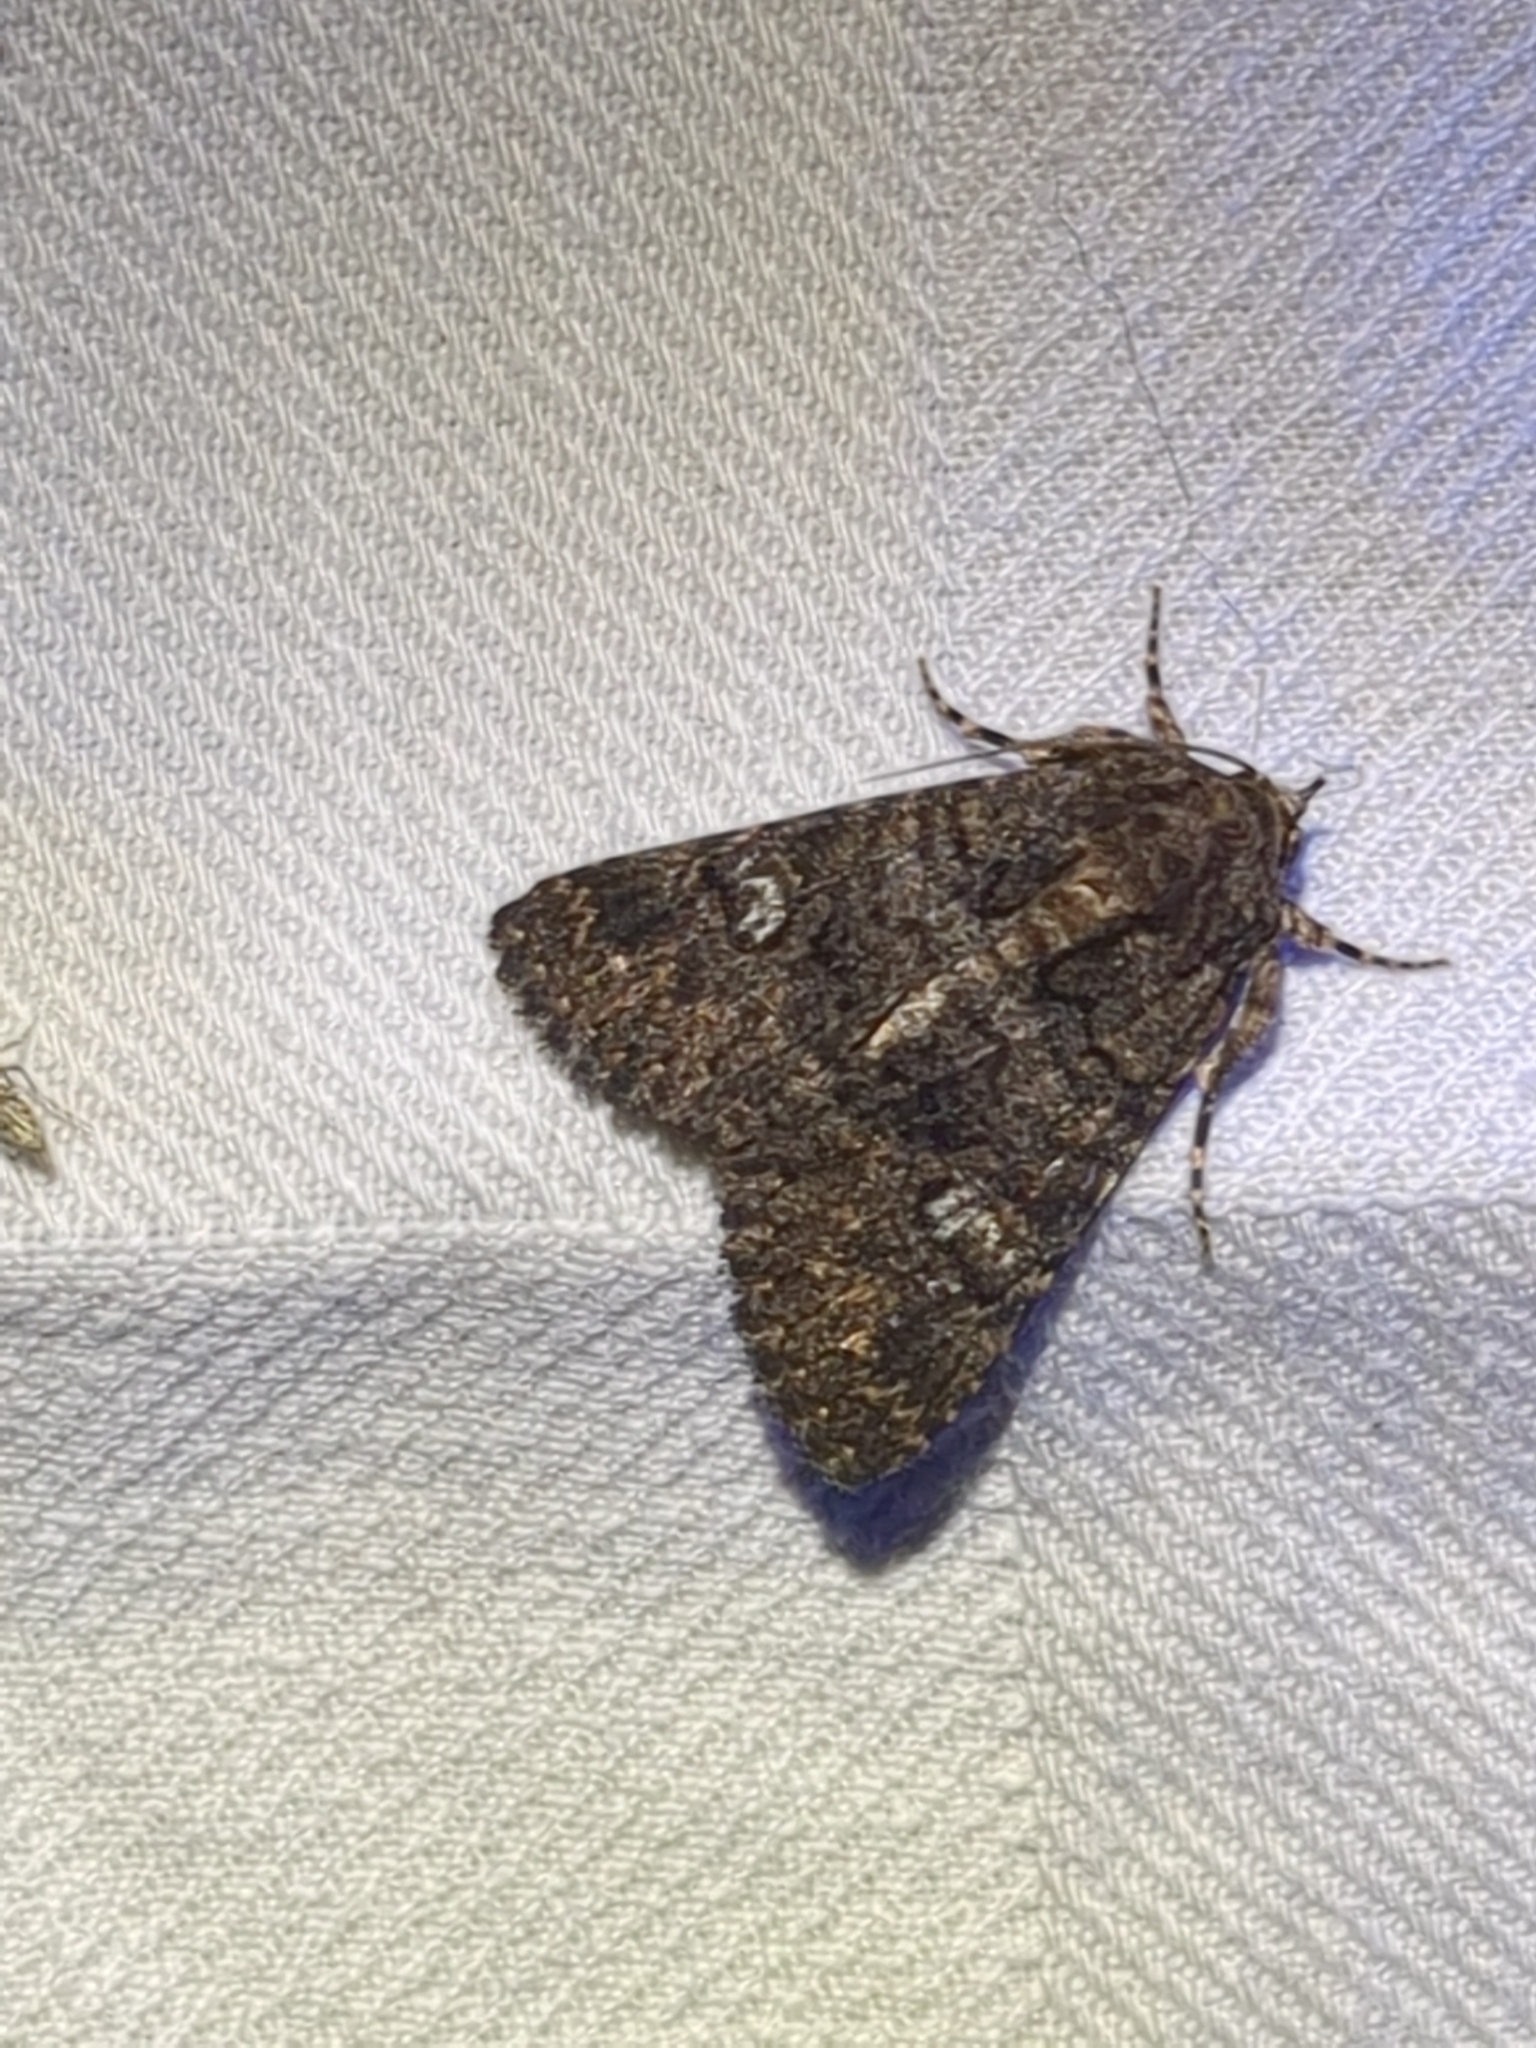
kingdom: Animalia
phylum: Arthropoda
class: Insecta
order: Lepidoptera
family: Erebidae
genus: Elousa
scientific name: Elousa mima
